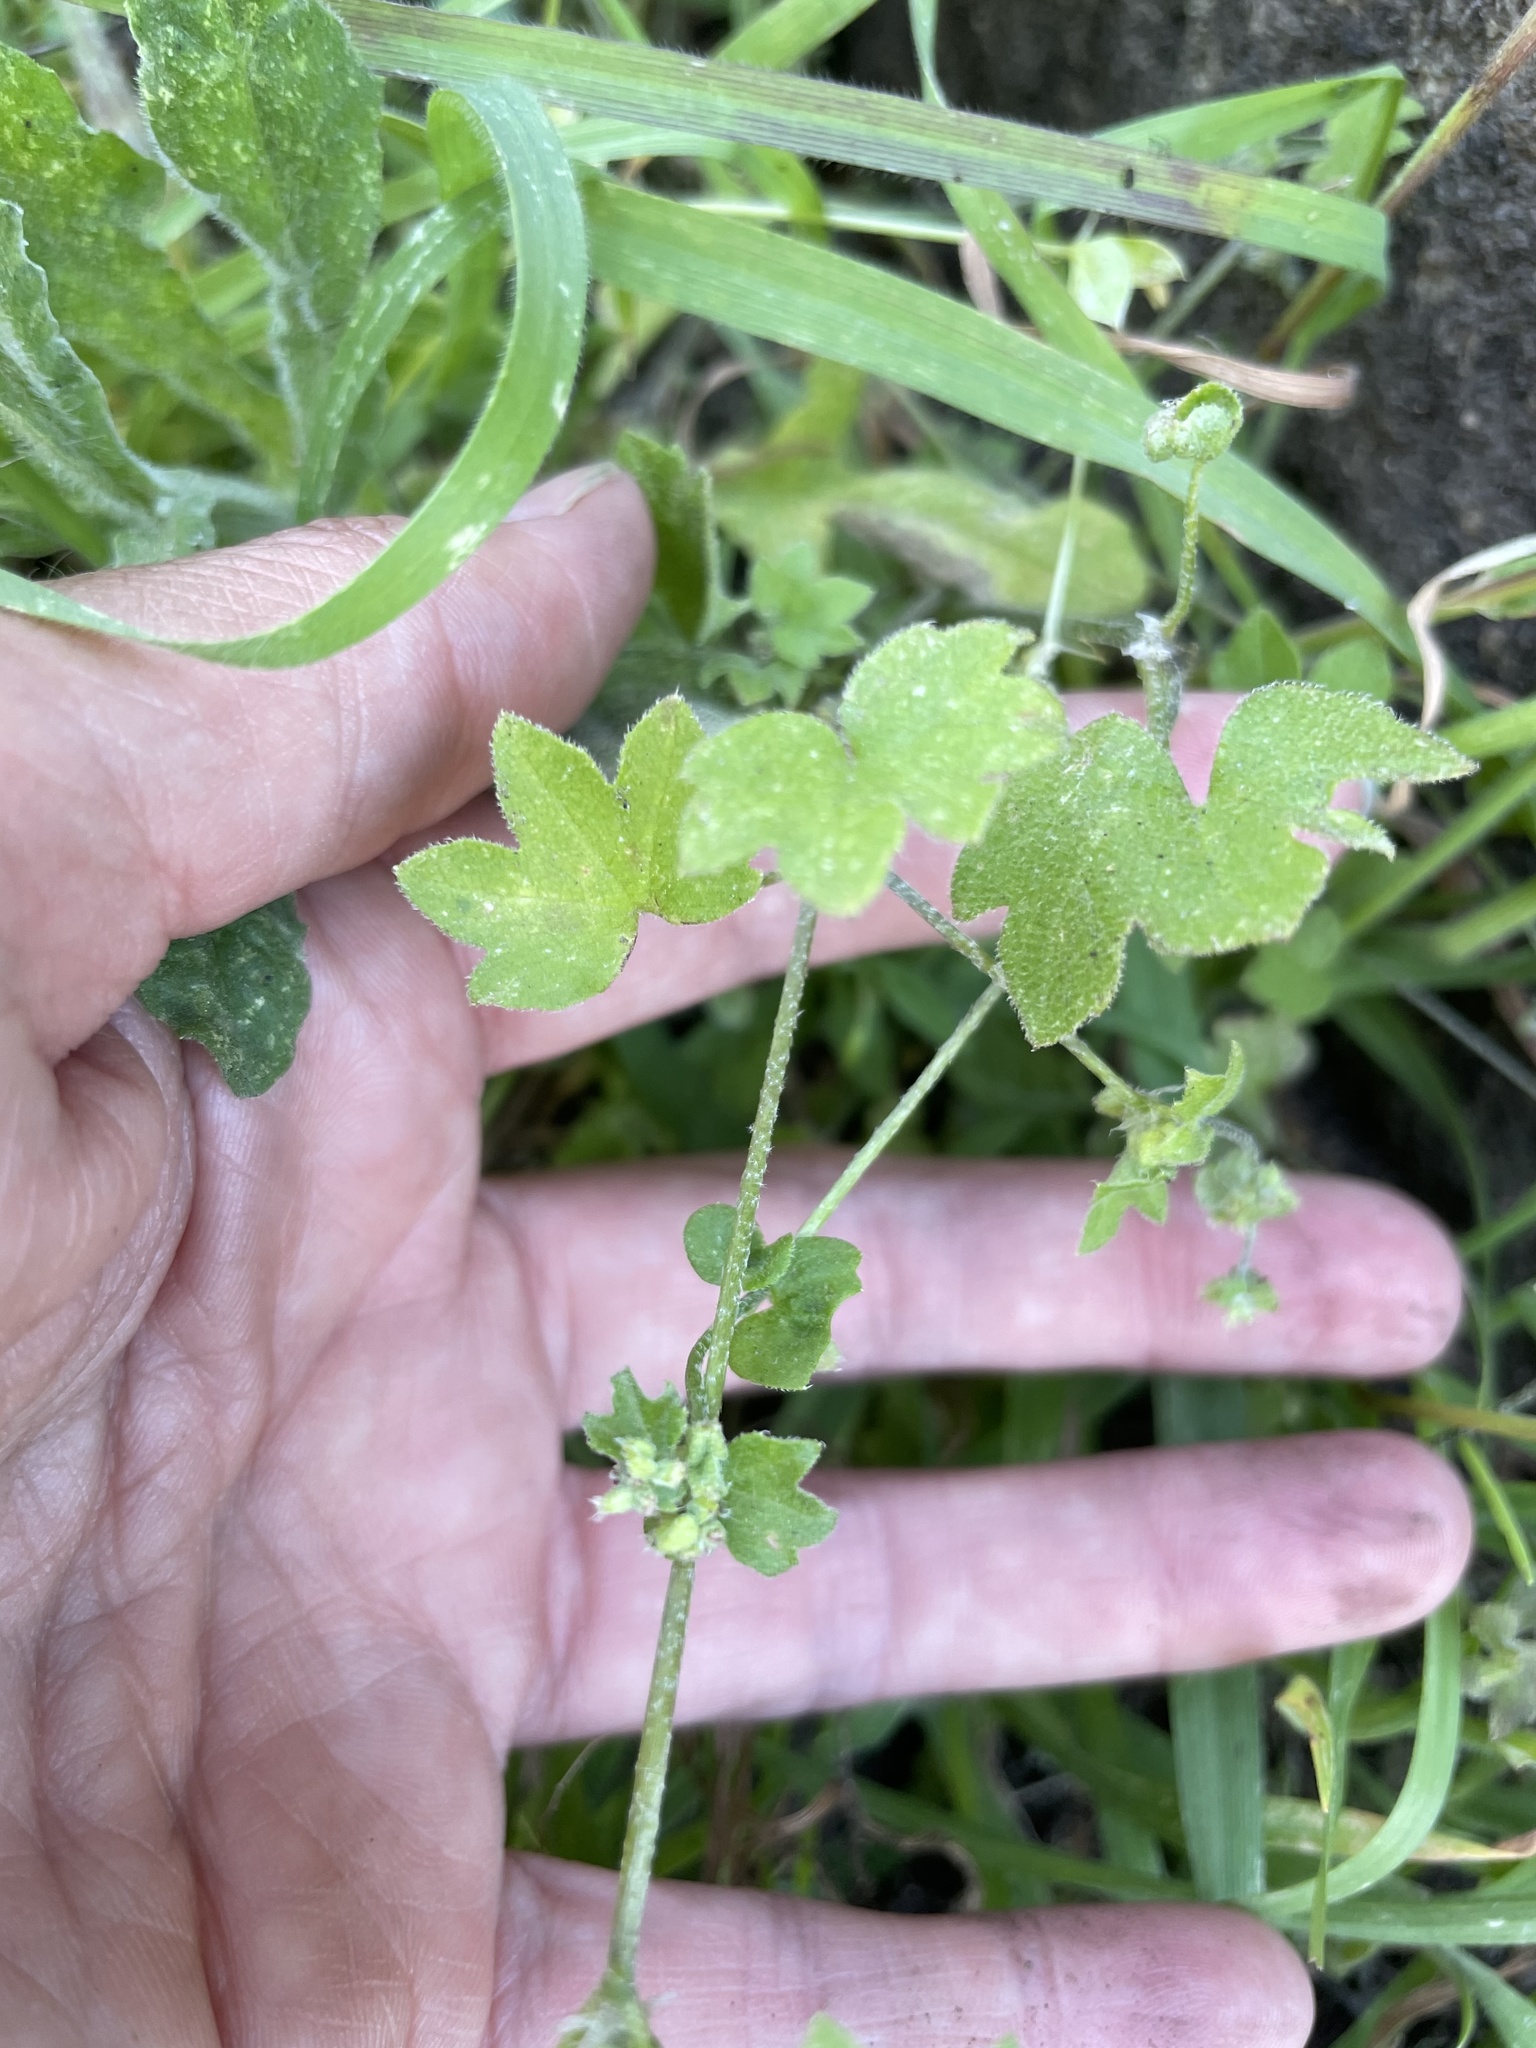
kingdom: Plantae
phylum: Tracheophyta
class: Magnoliopsida
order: Apiales
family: Apiaceae
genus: Bowlesia
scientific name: Bowlesia incana
